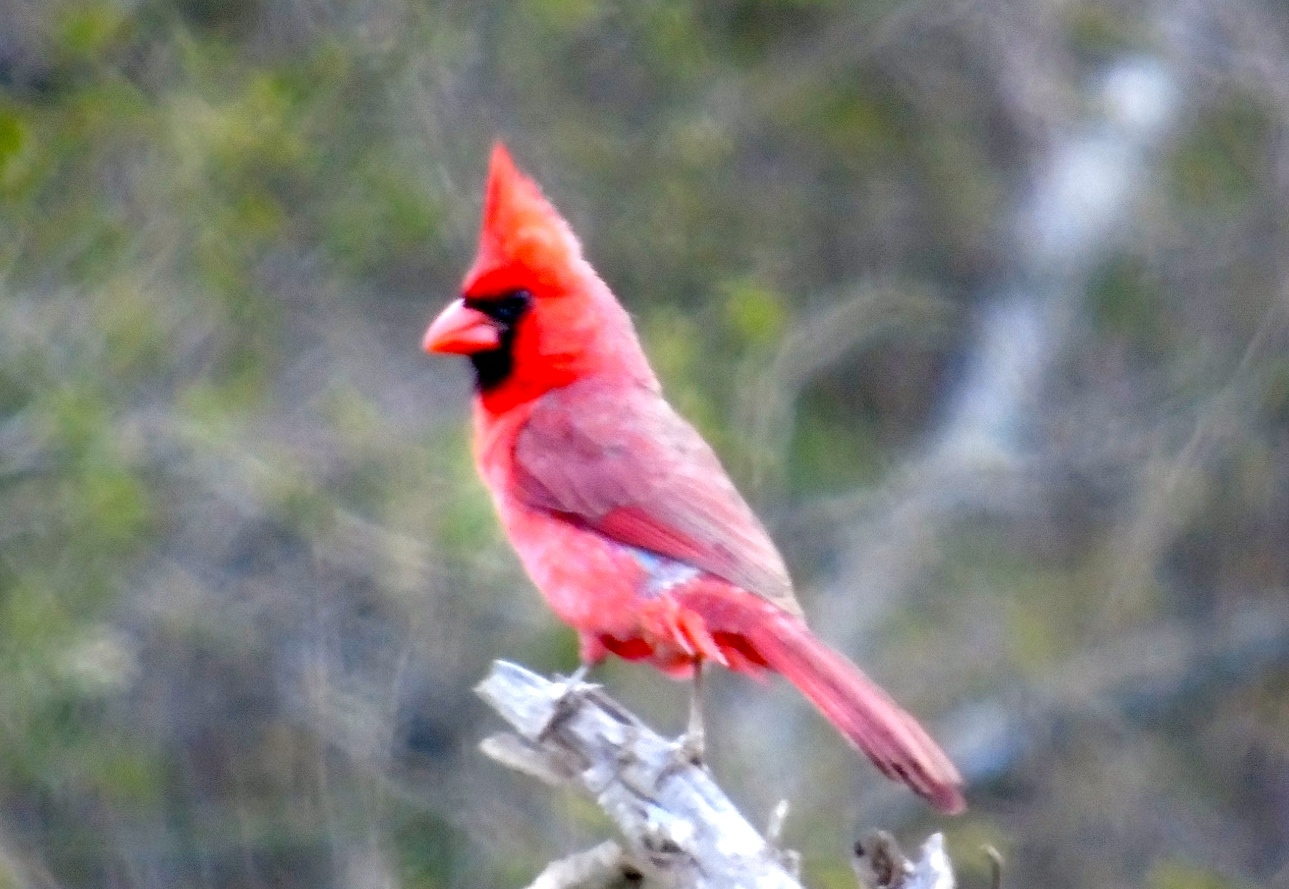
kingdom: Animalia
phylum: Chordata
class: Aves
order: Passeriformes
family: Cardinalidae
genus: Cardinalis
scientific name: Cardinalis cardinalis
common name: Northern cardinal
